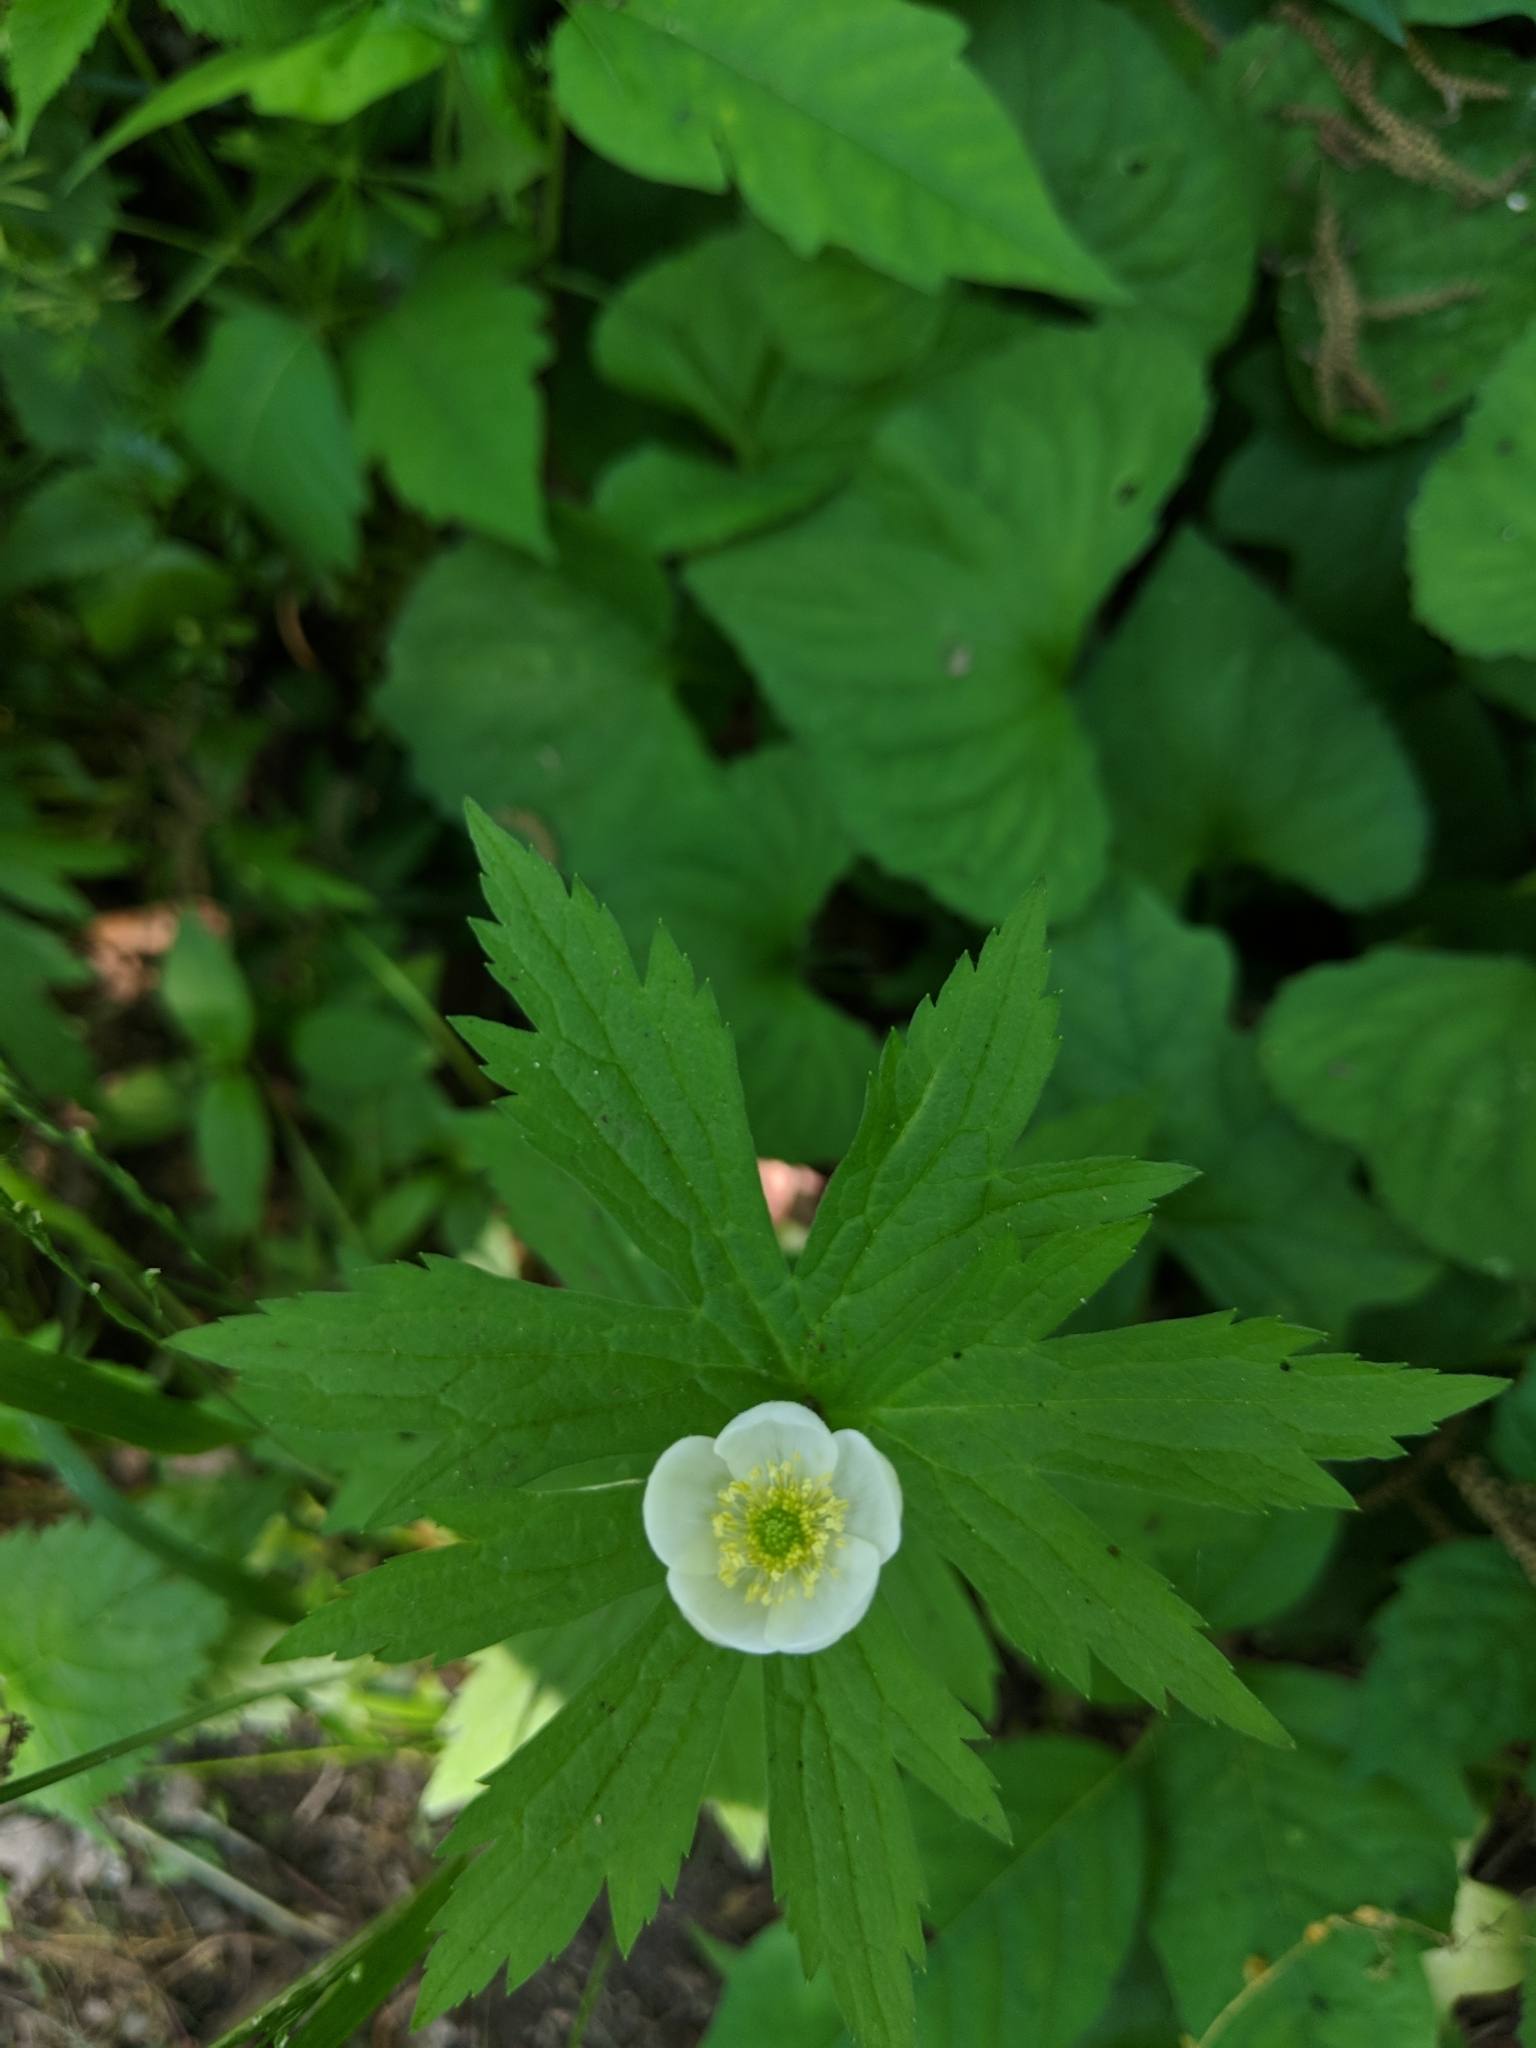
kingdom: Plantae
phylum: Tracheophyta
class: Magnoliopsida
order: Ranunculales
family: Ranunculaceae
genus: Anemonastrum
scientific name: Anemonastrum canadense
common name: Canada anemone
